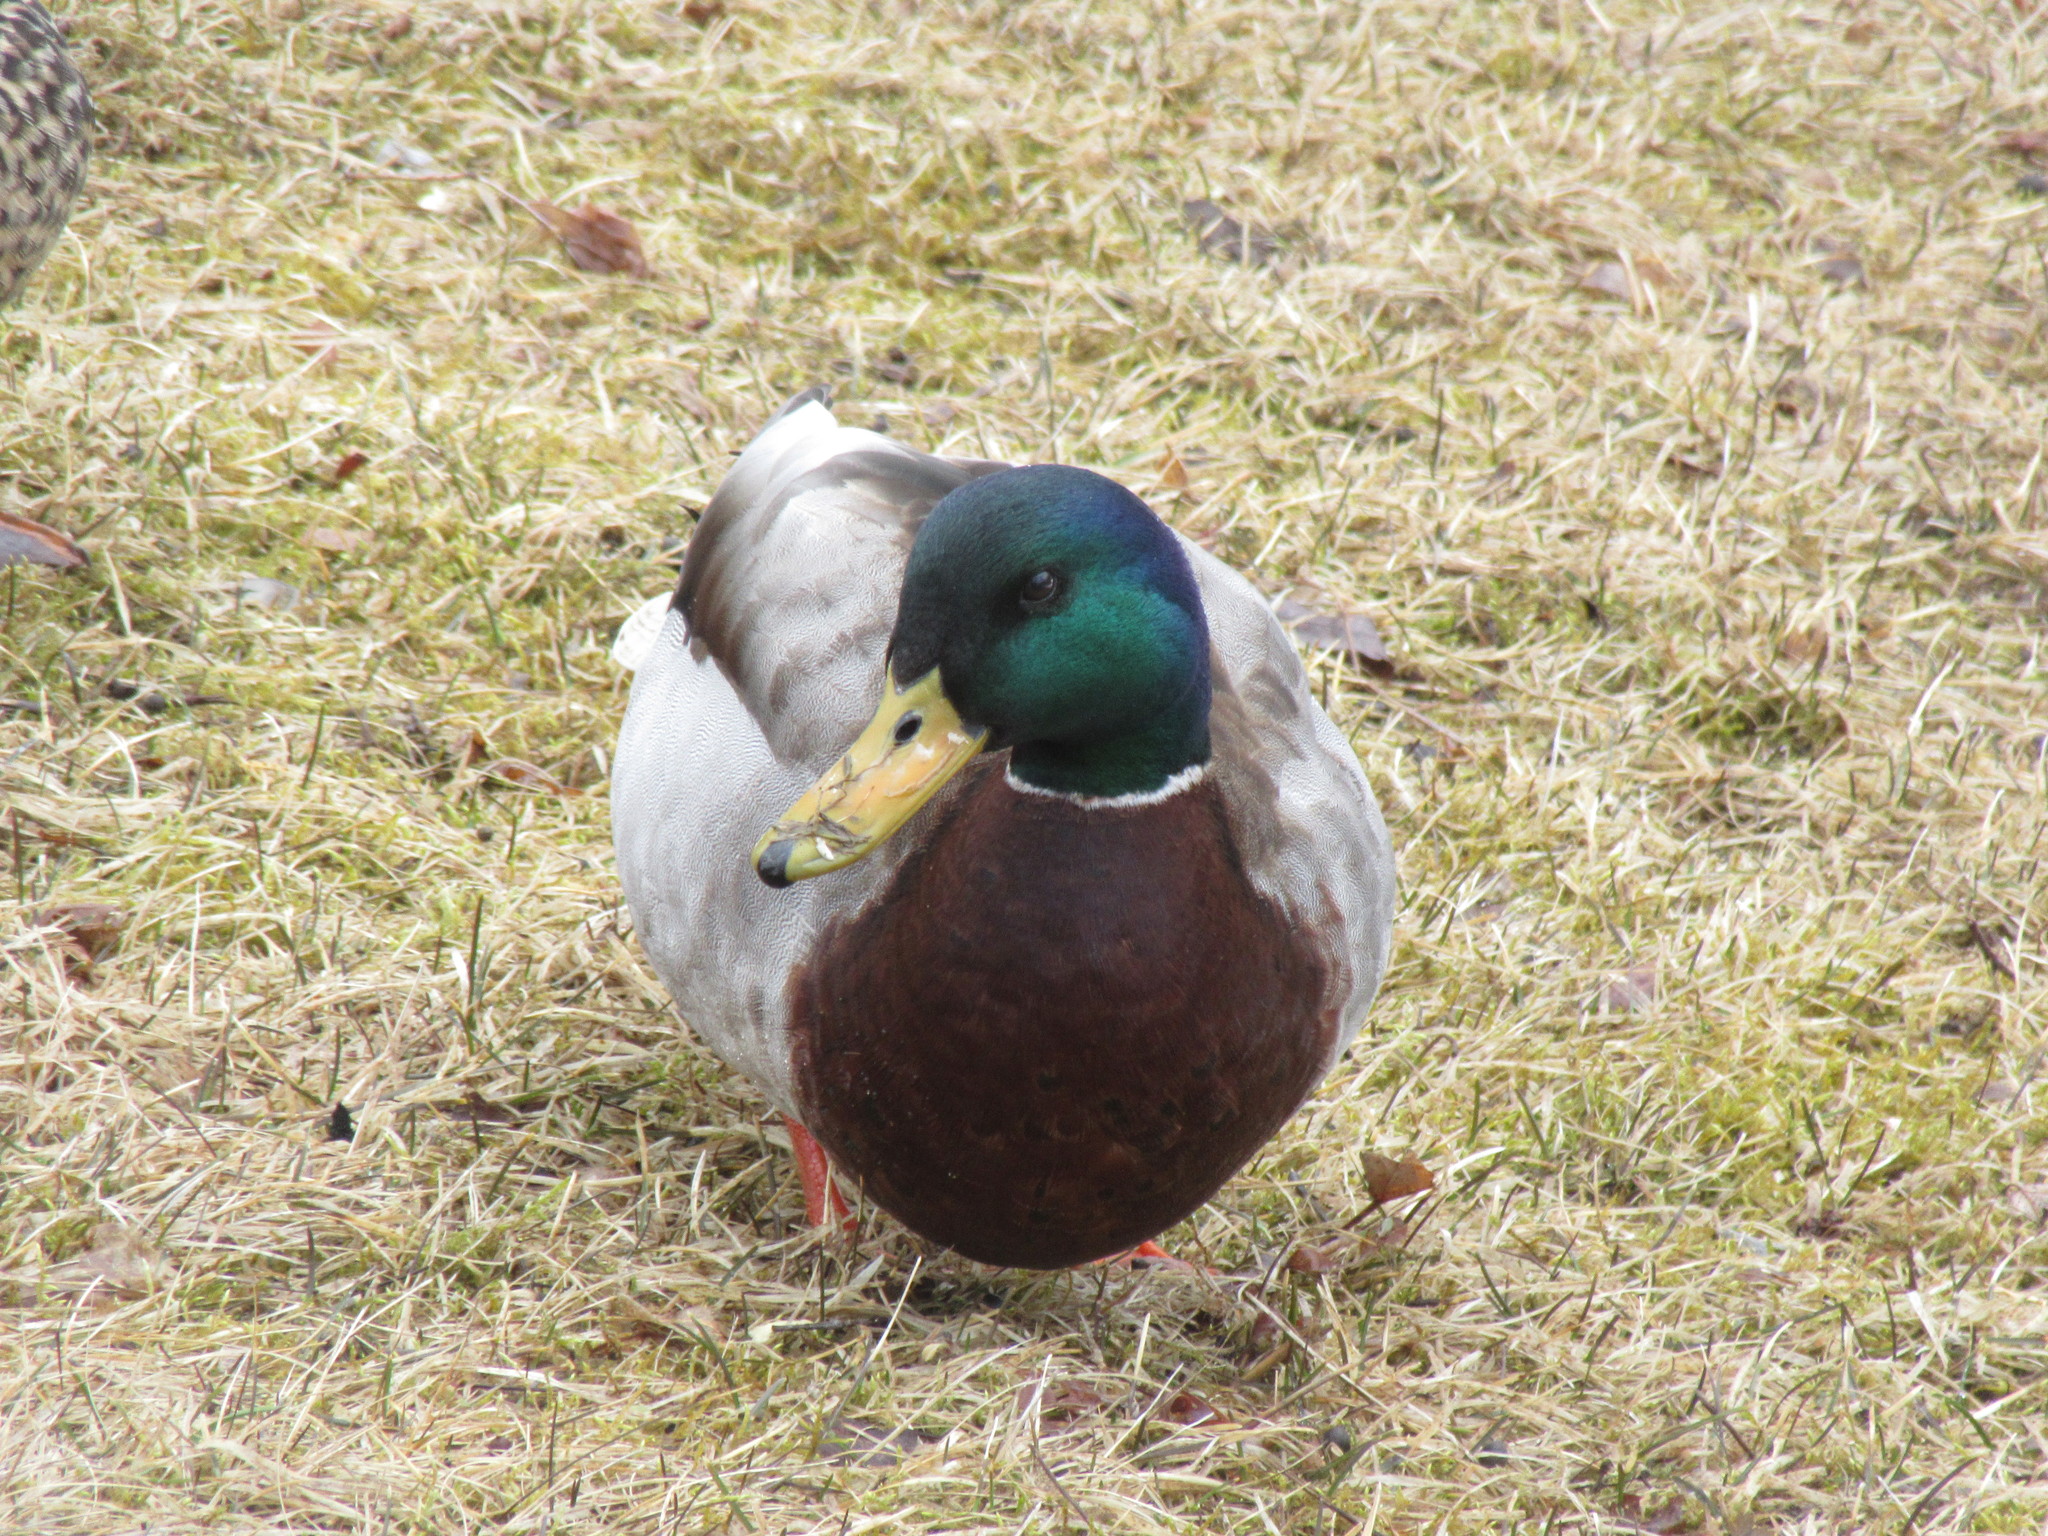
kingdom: Animalia
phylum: Chordata
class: Aves
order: Anseriformes
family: Anatidae
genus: Anas
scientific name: Anas platyrhynchos
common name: Mallard
